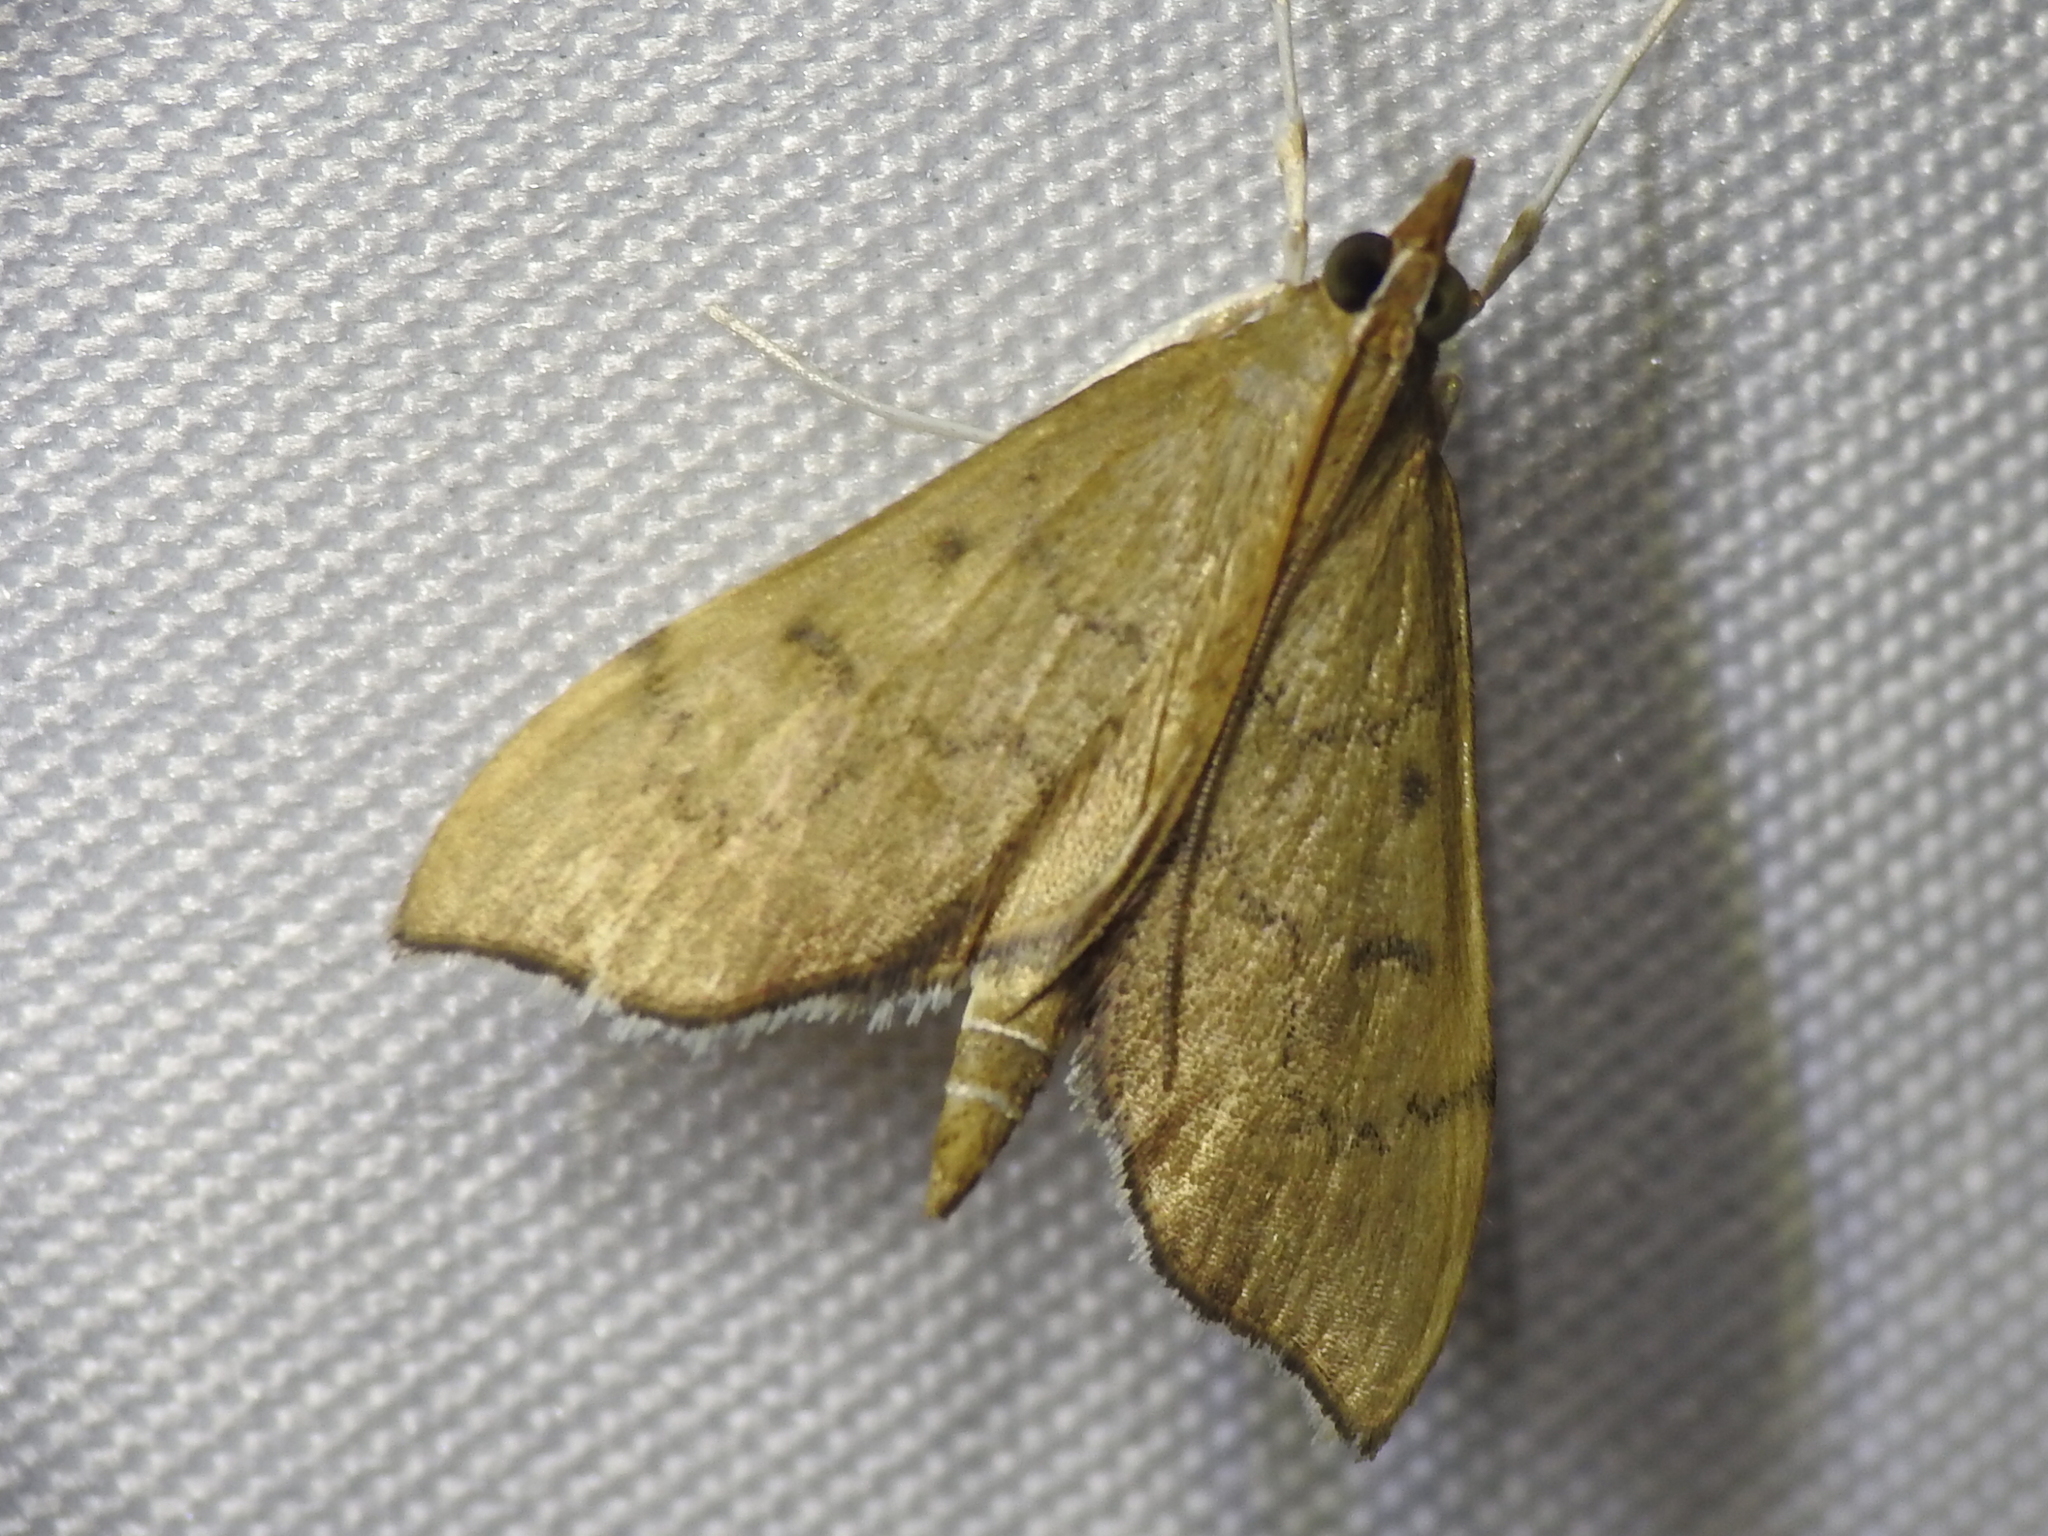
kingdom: Animalia
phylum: Arthropoda
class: Insecta
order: Lepidoptera
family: Crambidae
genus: Sericoplaga
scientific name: Sericoplaga externalis
